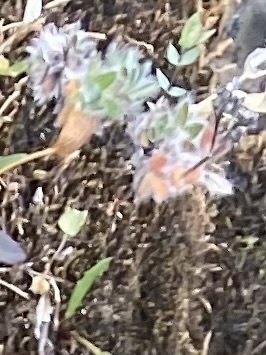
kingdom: Plantae
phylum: Tracheophyta
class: Magnoliopsida
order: Boraginales
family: Boraginaceae
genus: Eritrichium
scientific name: Eritrichium villosum
